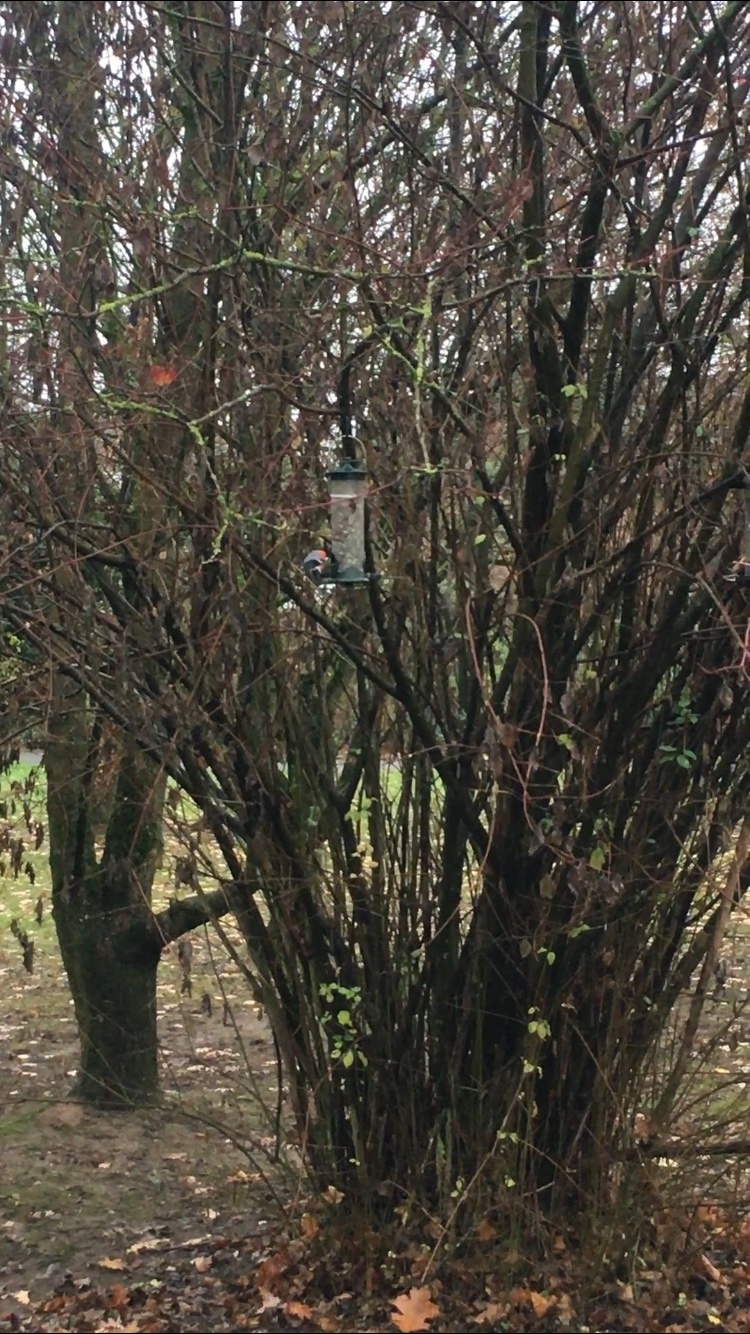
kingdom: Animalia
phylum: Chordata
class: Aves
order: Passeriformes
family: Fringillidae
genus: Pyrrhula
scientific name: Pyrrhula pyrrhula
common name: Eurasian bullfinch
